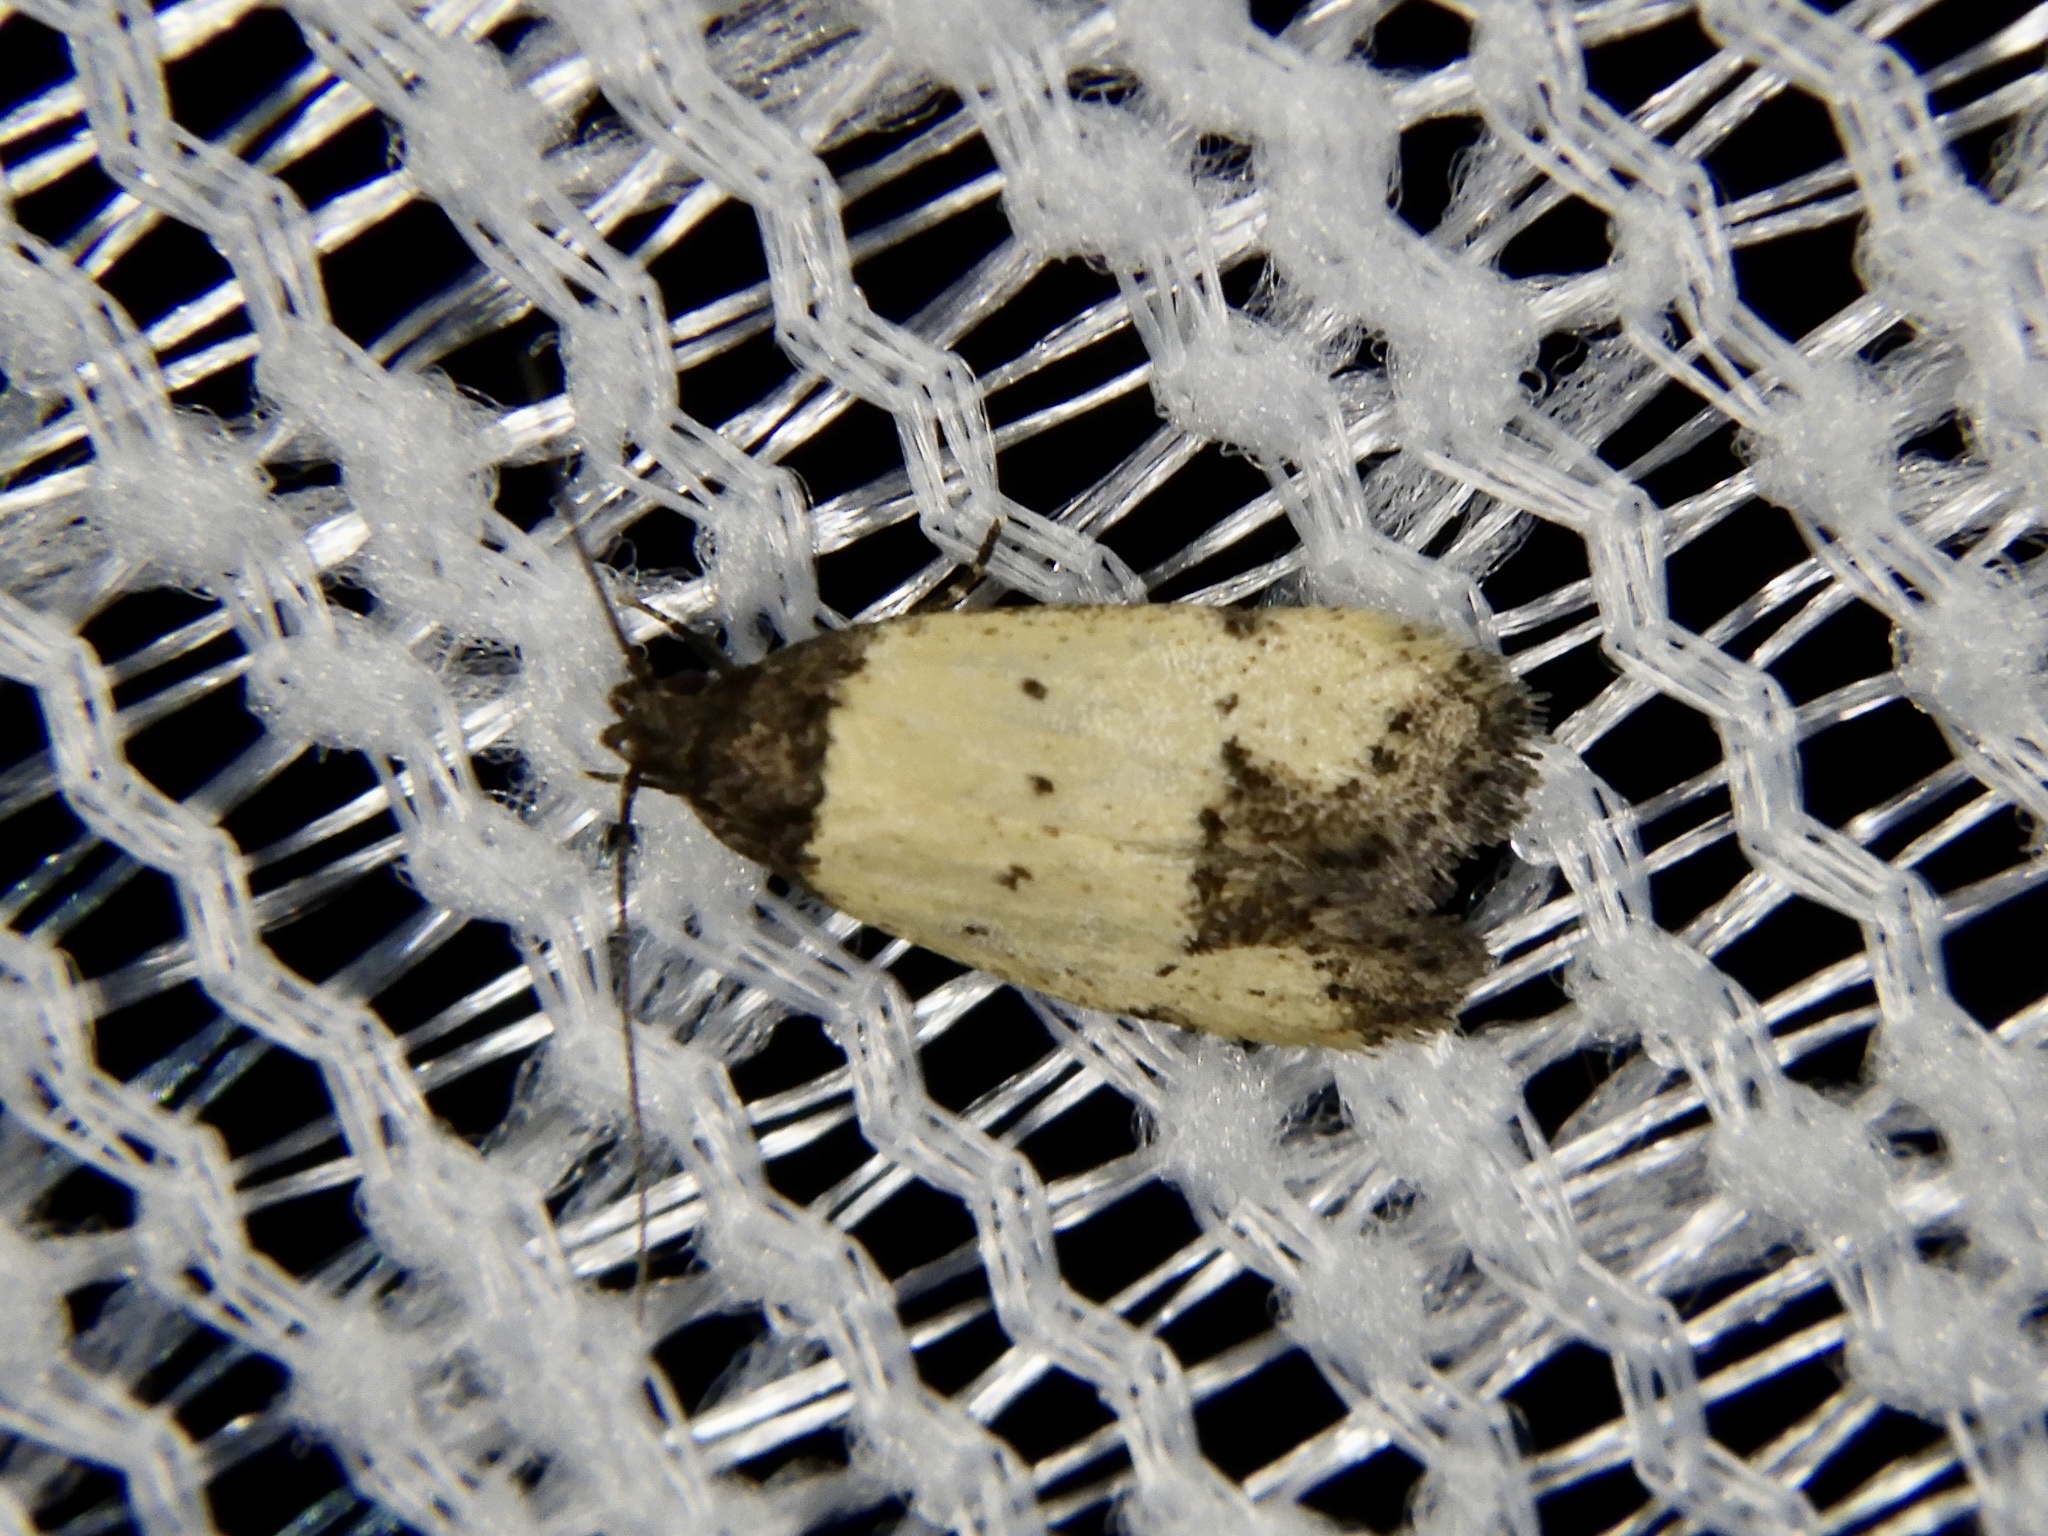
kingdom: Animalia
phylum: Arthropoda
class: Insecta
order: Lepidoptera
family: Oecophoridae
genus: Tyrolimnas
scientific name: Tyrolimnas anthraconesa
